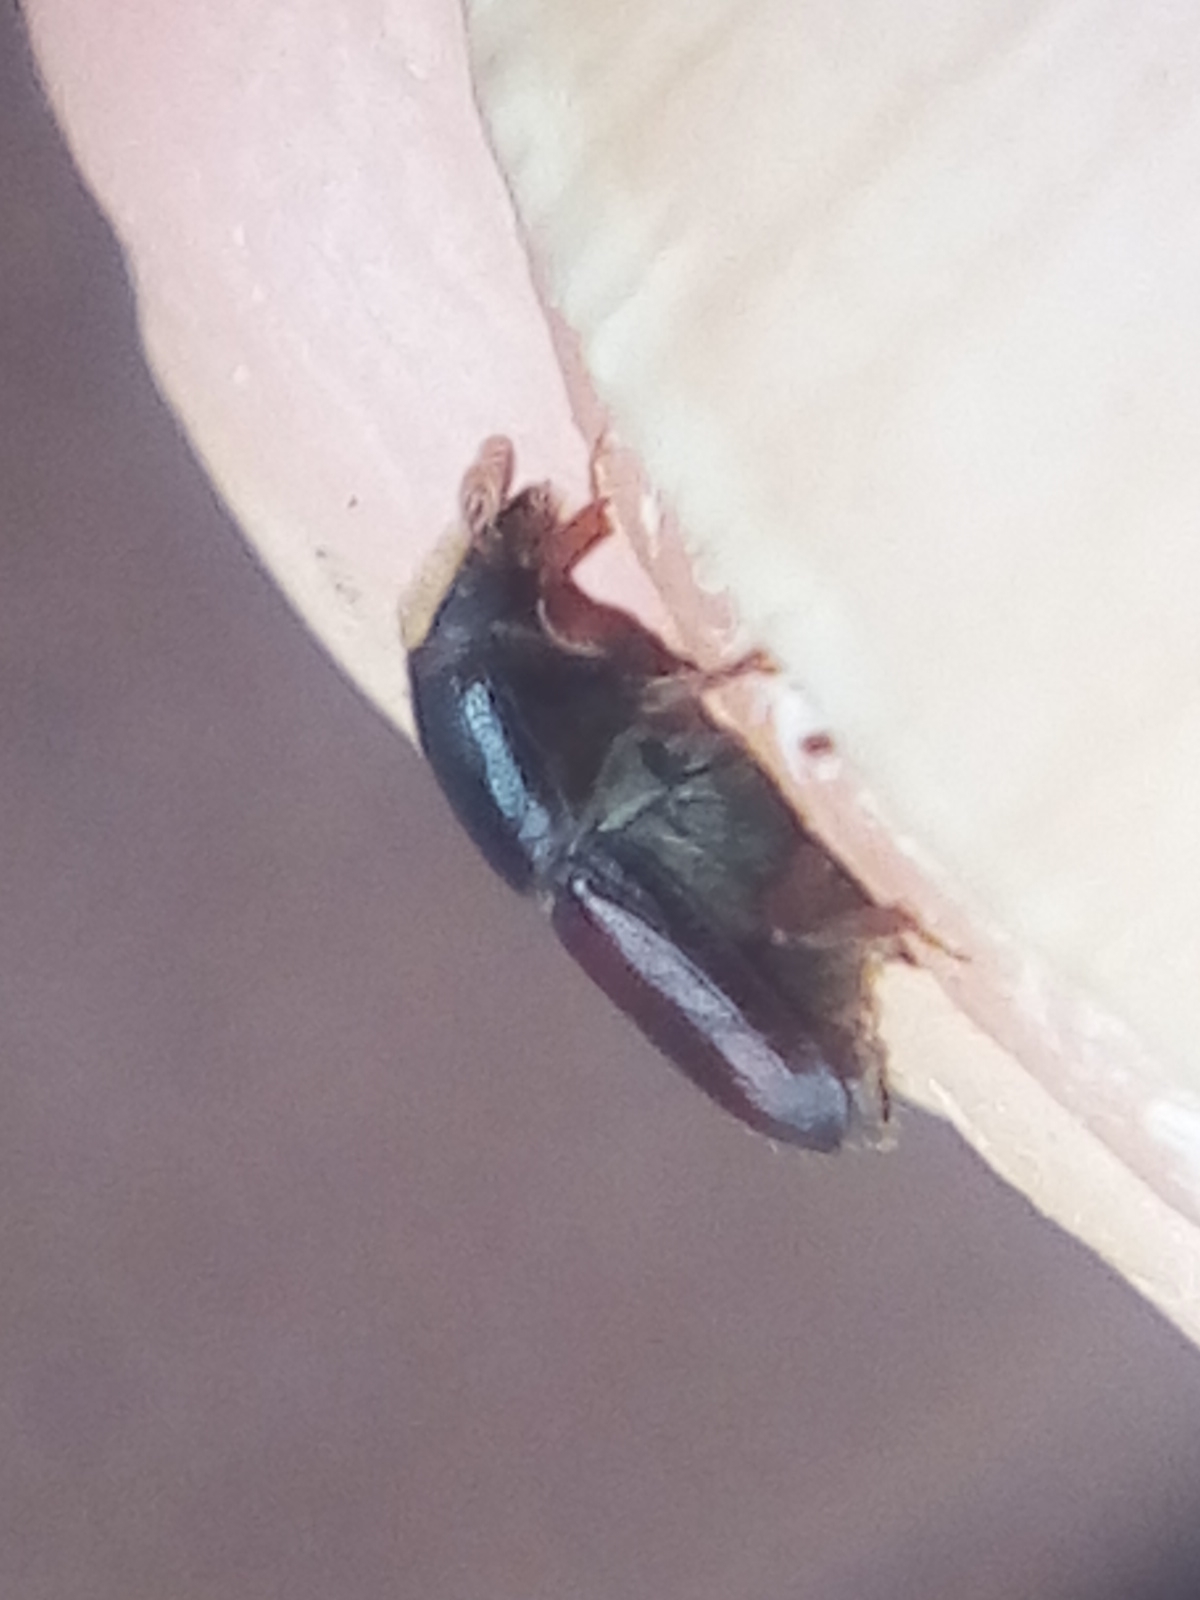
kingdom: Animalia
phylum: Arthropoda
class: Insecta
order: Coleoptera
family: Curculionidae
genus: Scolytus
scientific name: Scolytus multistriatus
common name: European elm bark beetle
